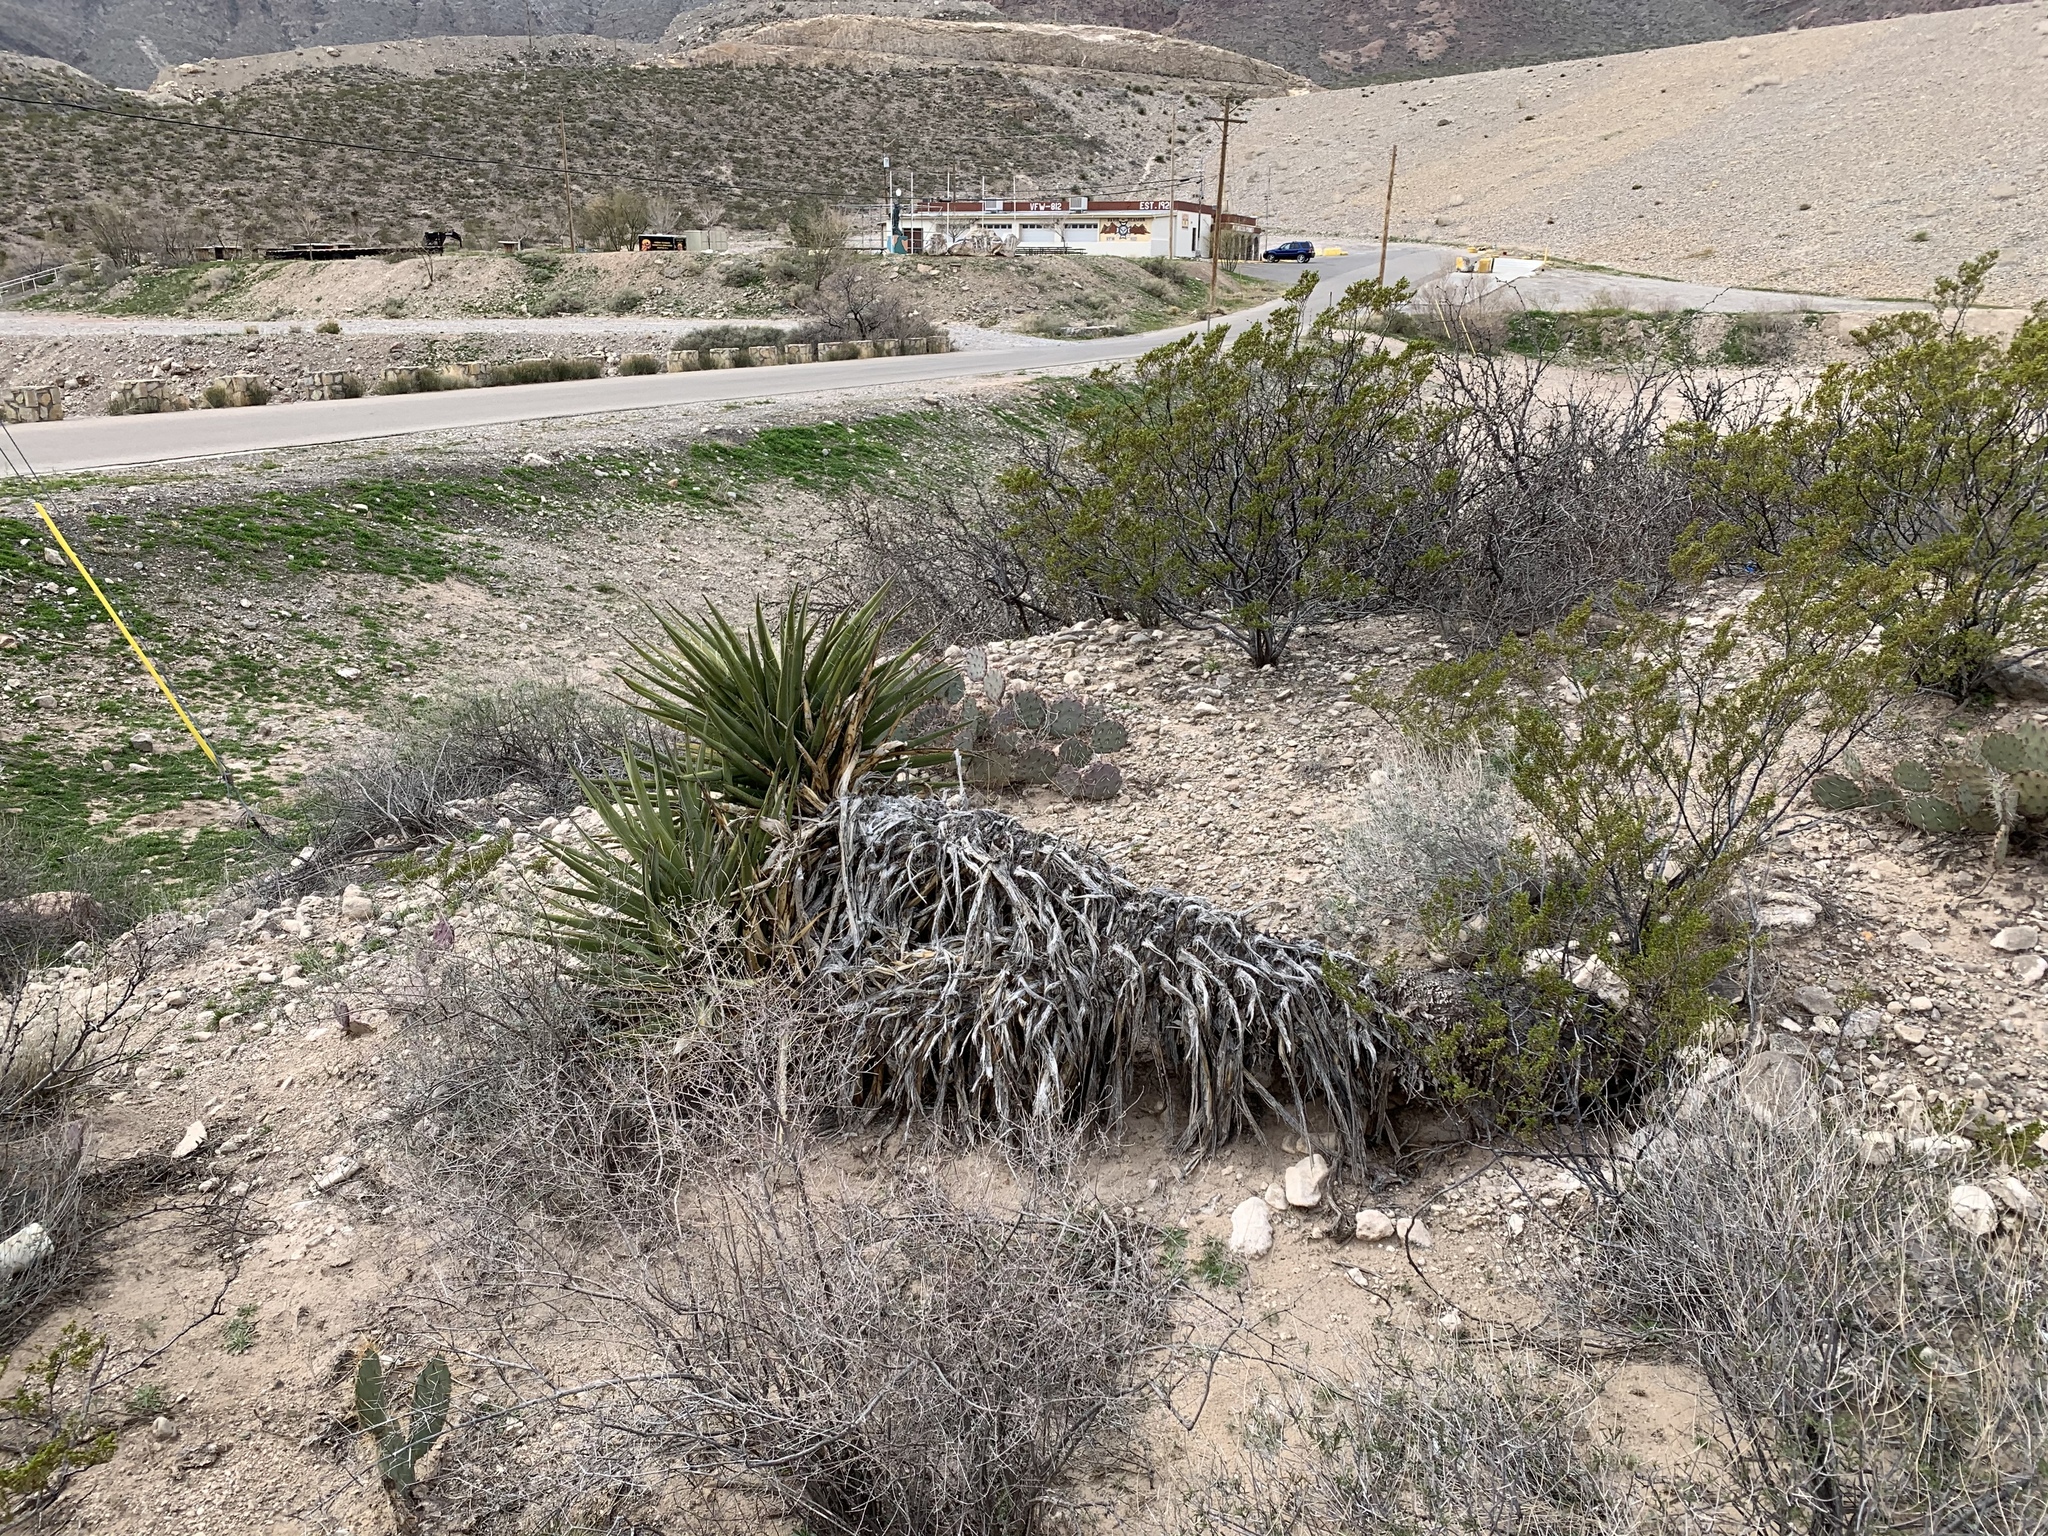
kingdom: Plantae
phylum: Tracheophyta
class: Liliopsida
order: Asparagales
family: Asparagaceae
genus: Yucca
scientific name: Yucca treculiana
